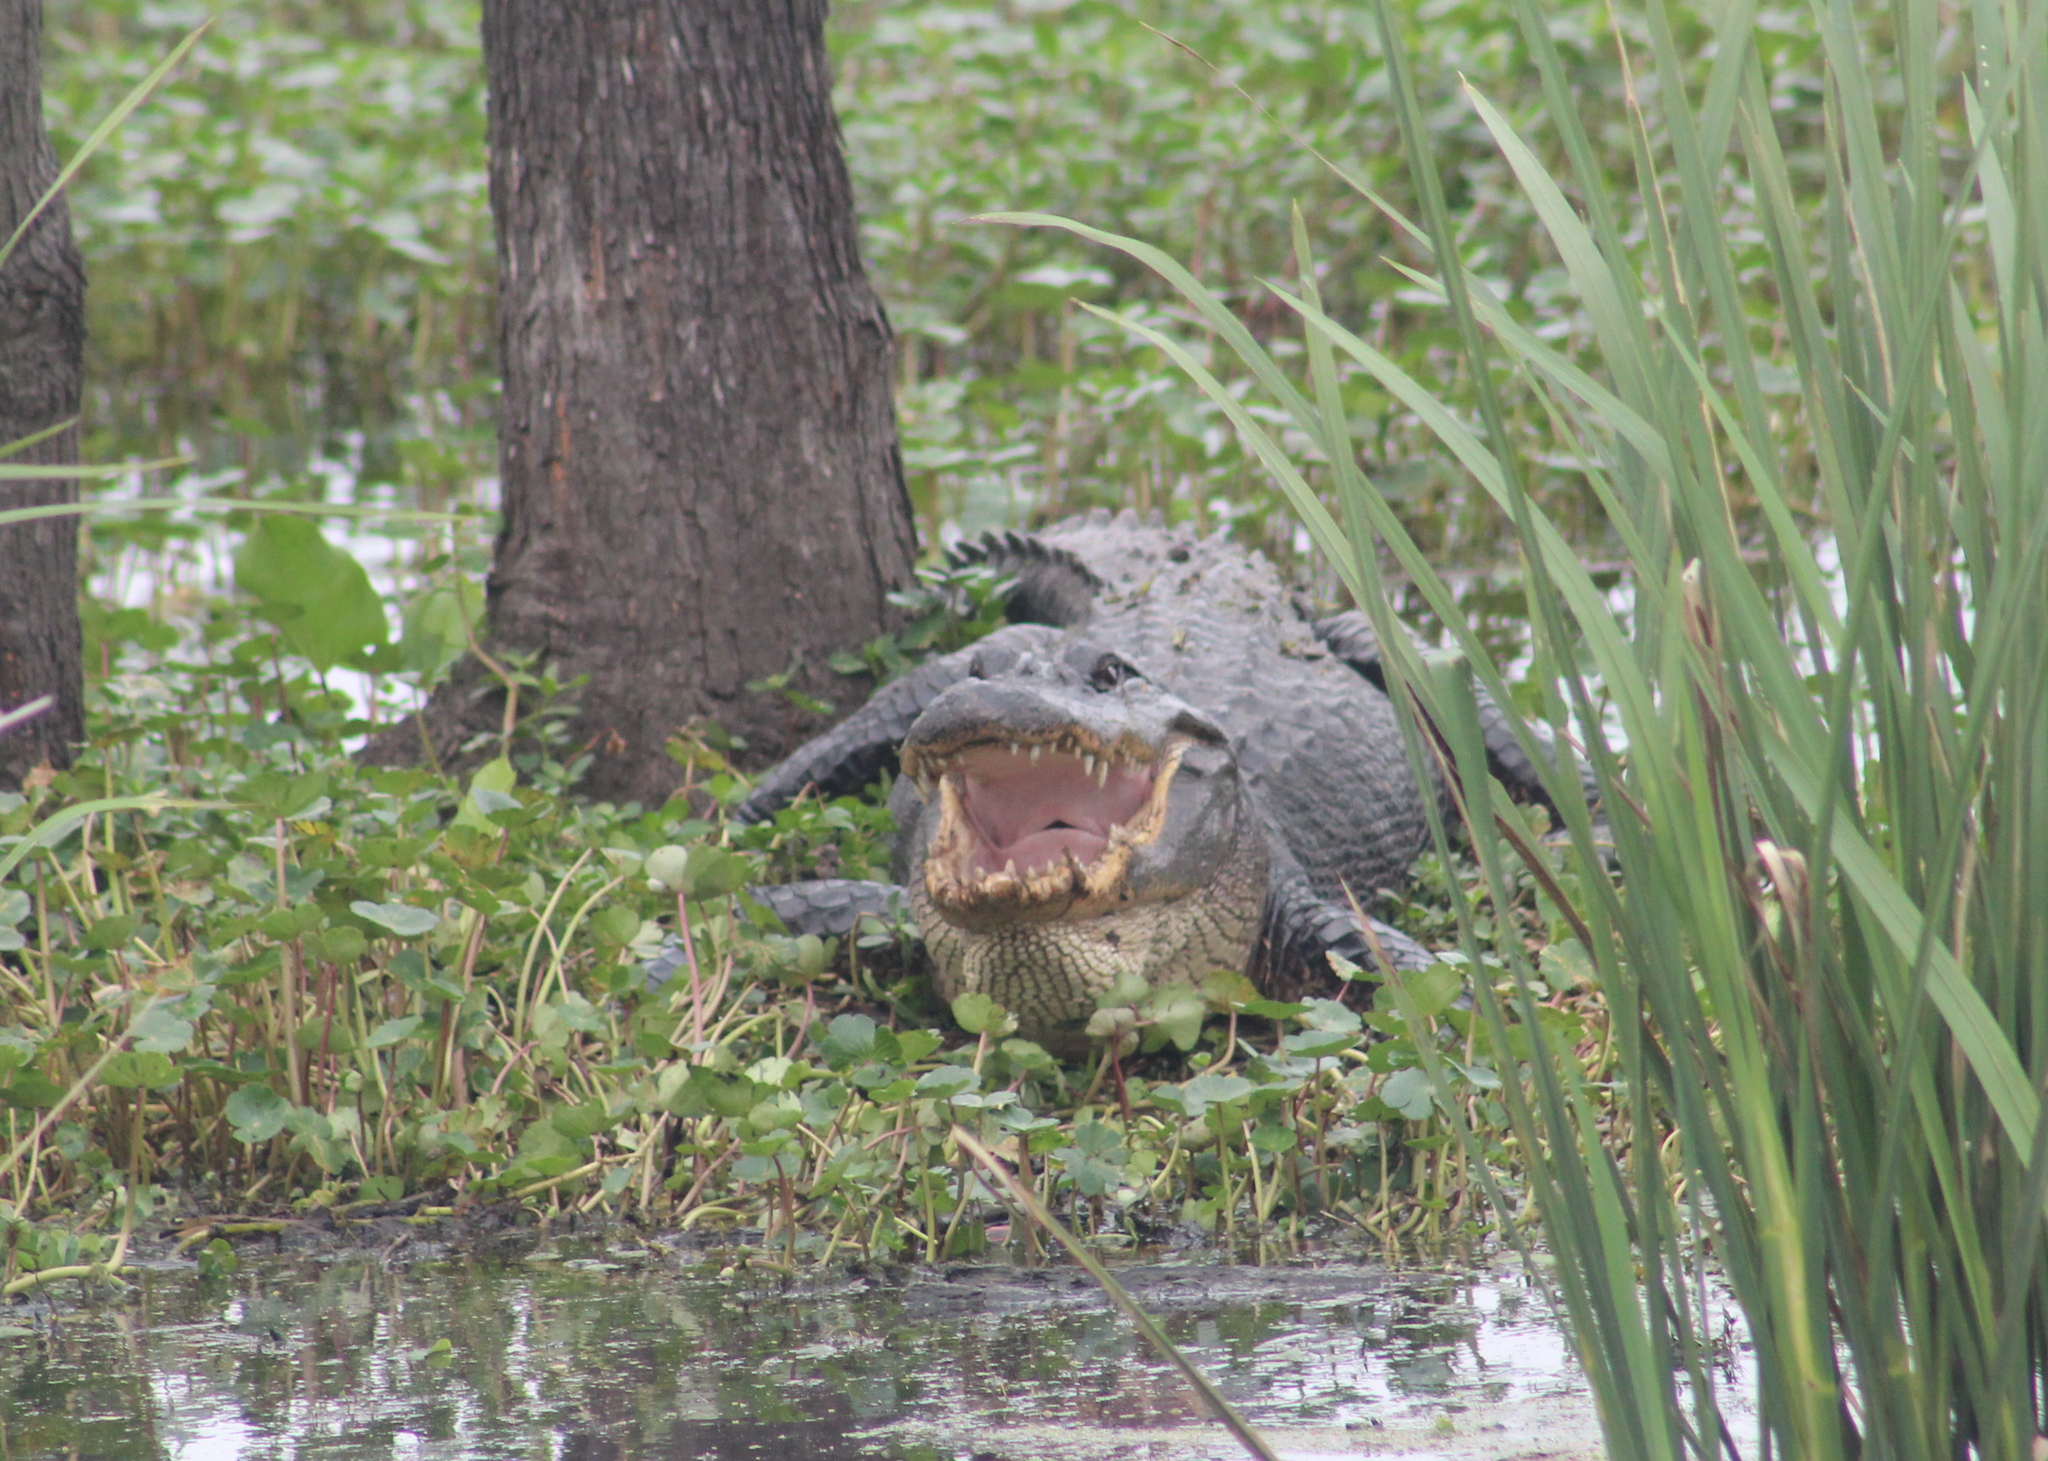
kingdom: Animalia
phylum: Chordata
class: Crocodylia
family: Alligatoridae
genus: Alligator
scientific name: Alligator mississippiensis
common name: American alligator
